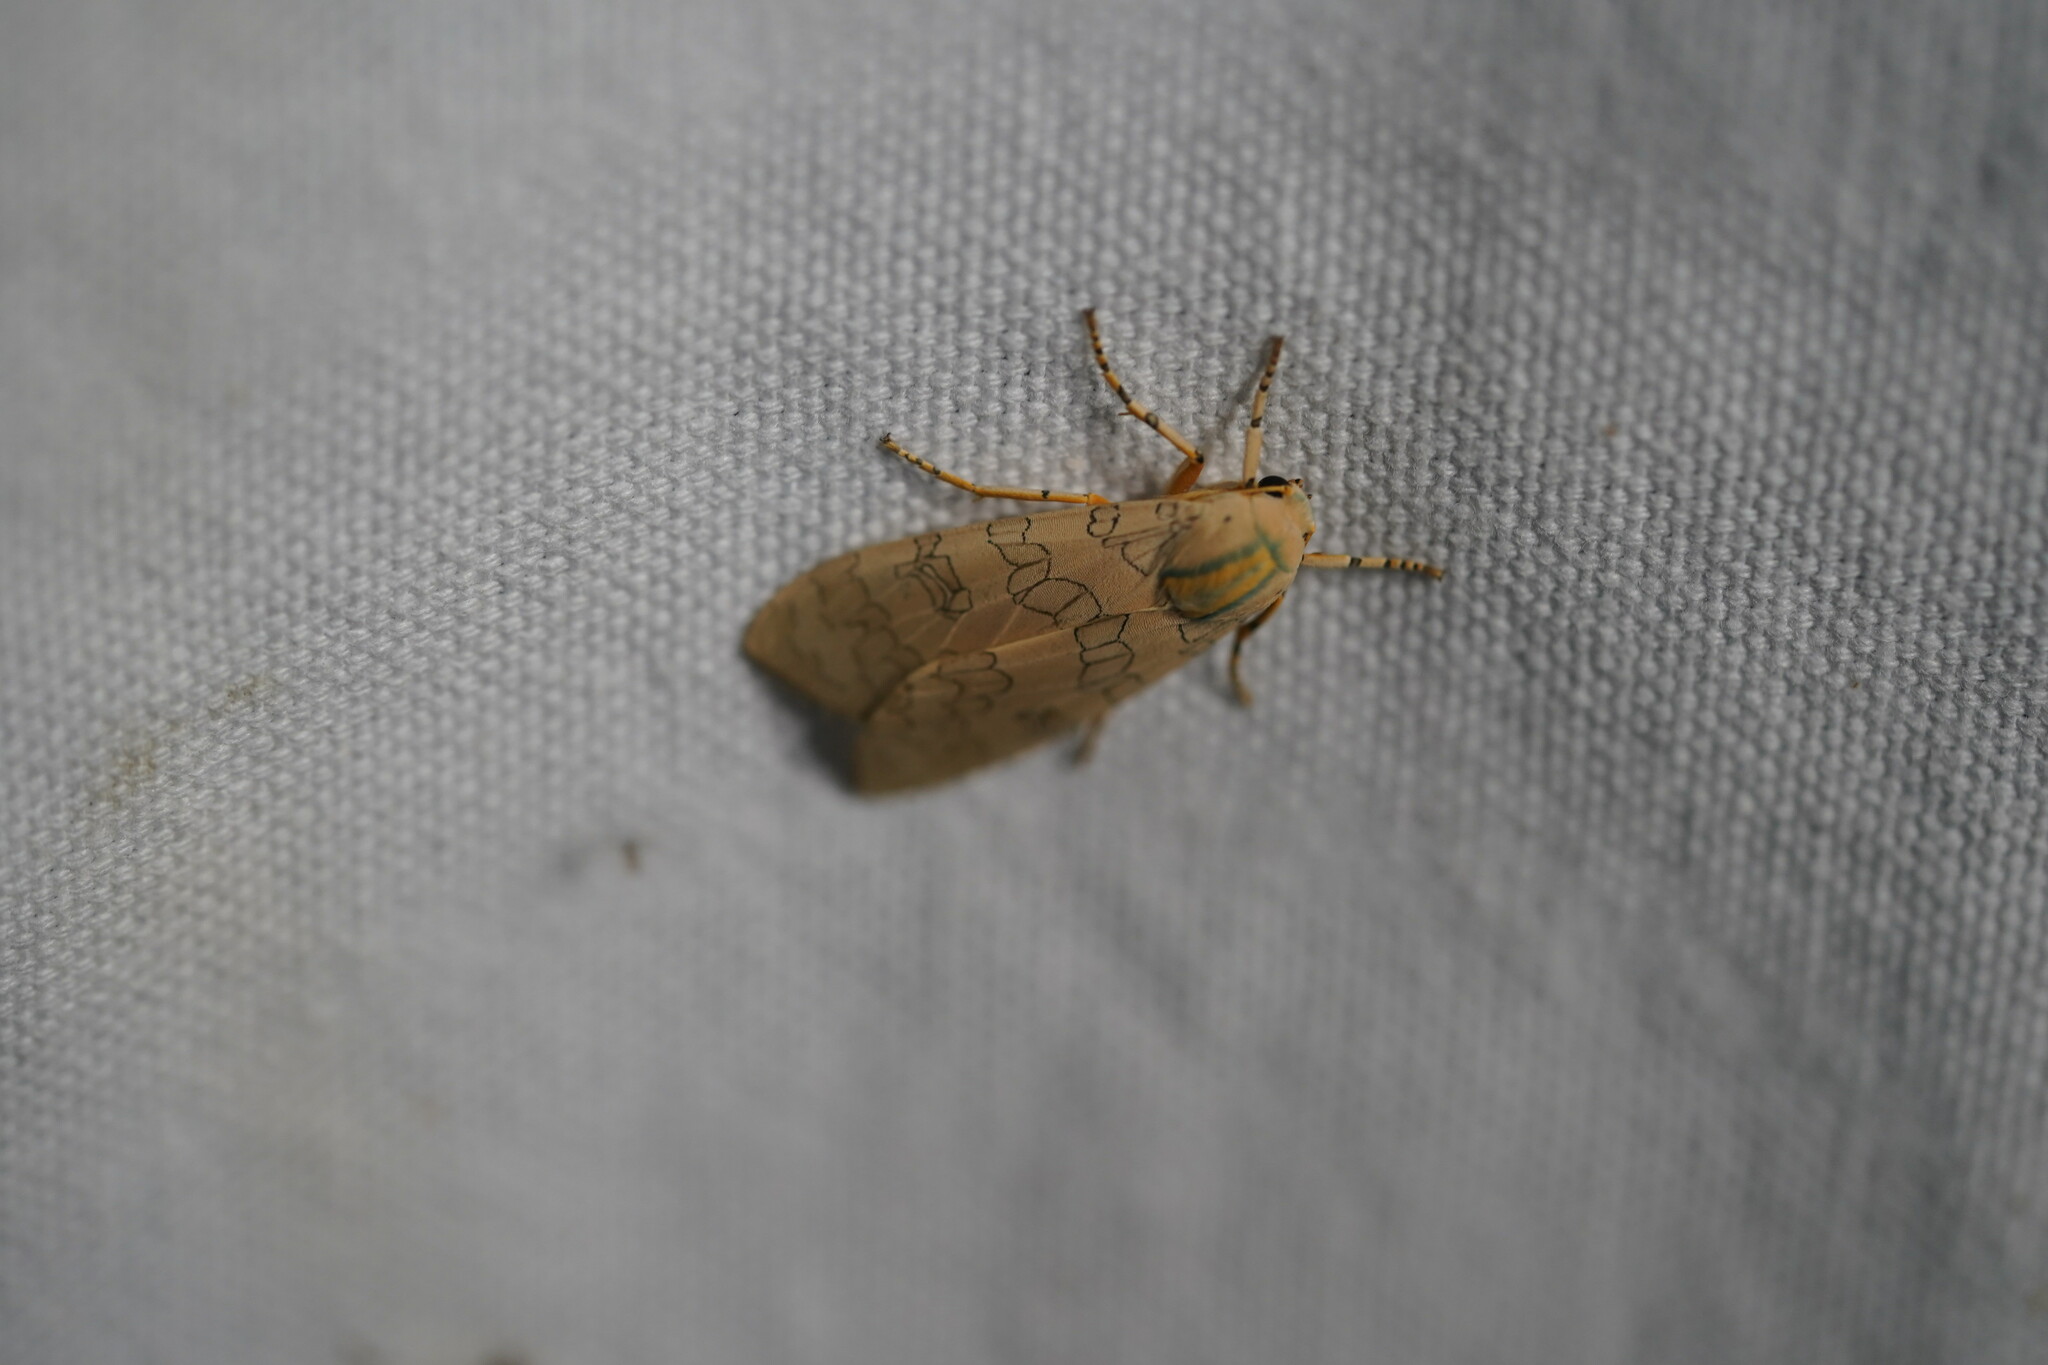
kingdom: Animalia
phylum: Arthropoda
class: Insecta
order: Lepidoptera
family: Erebidae
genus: Halysidota
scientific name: Halysidota
